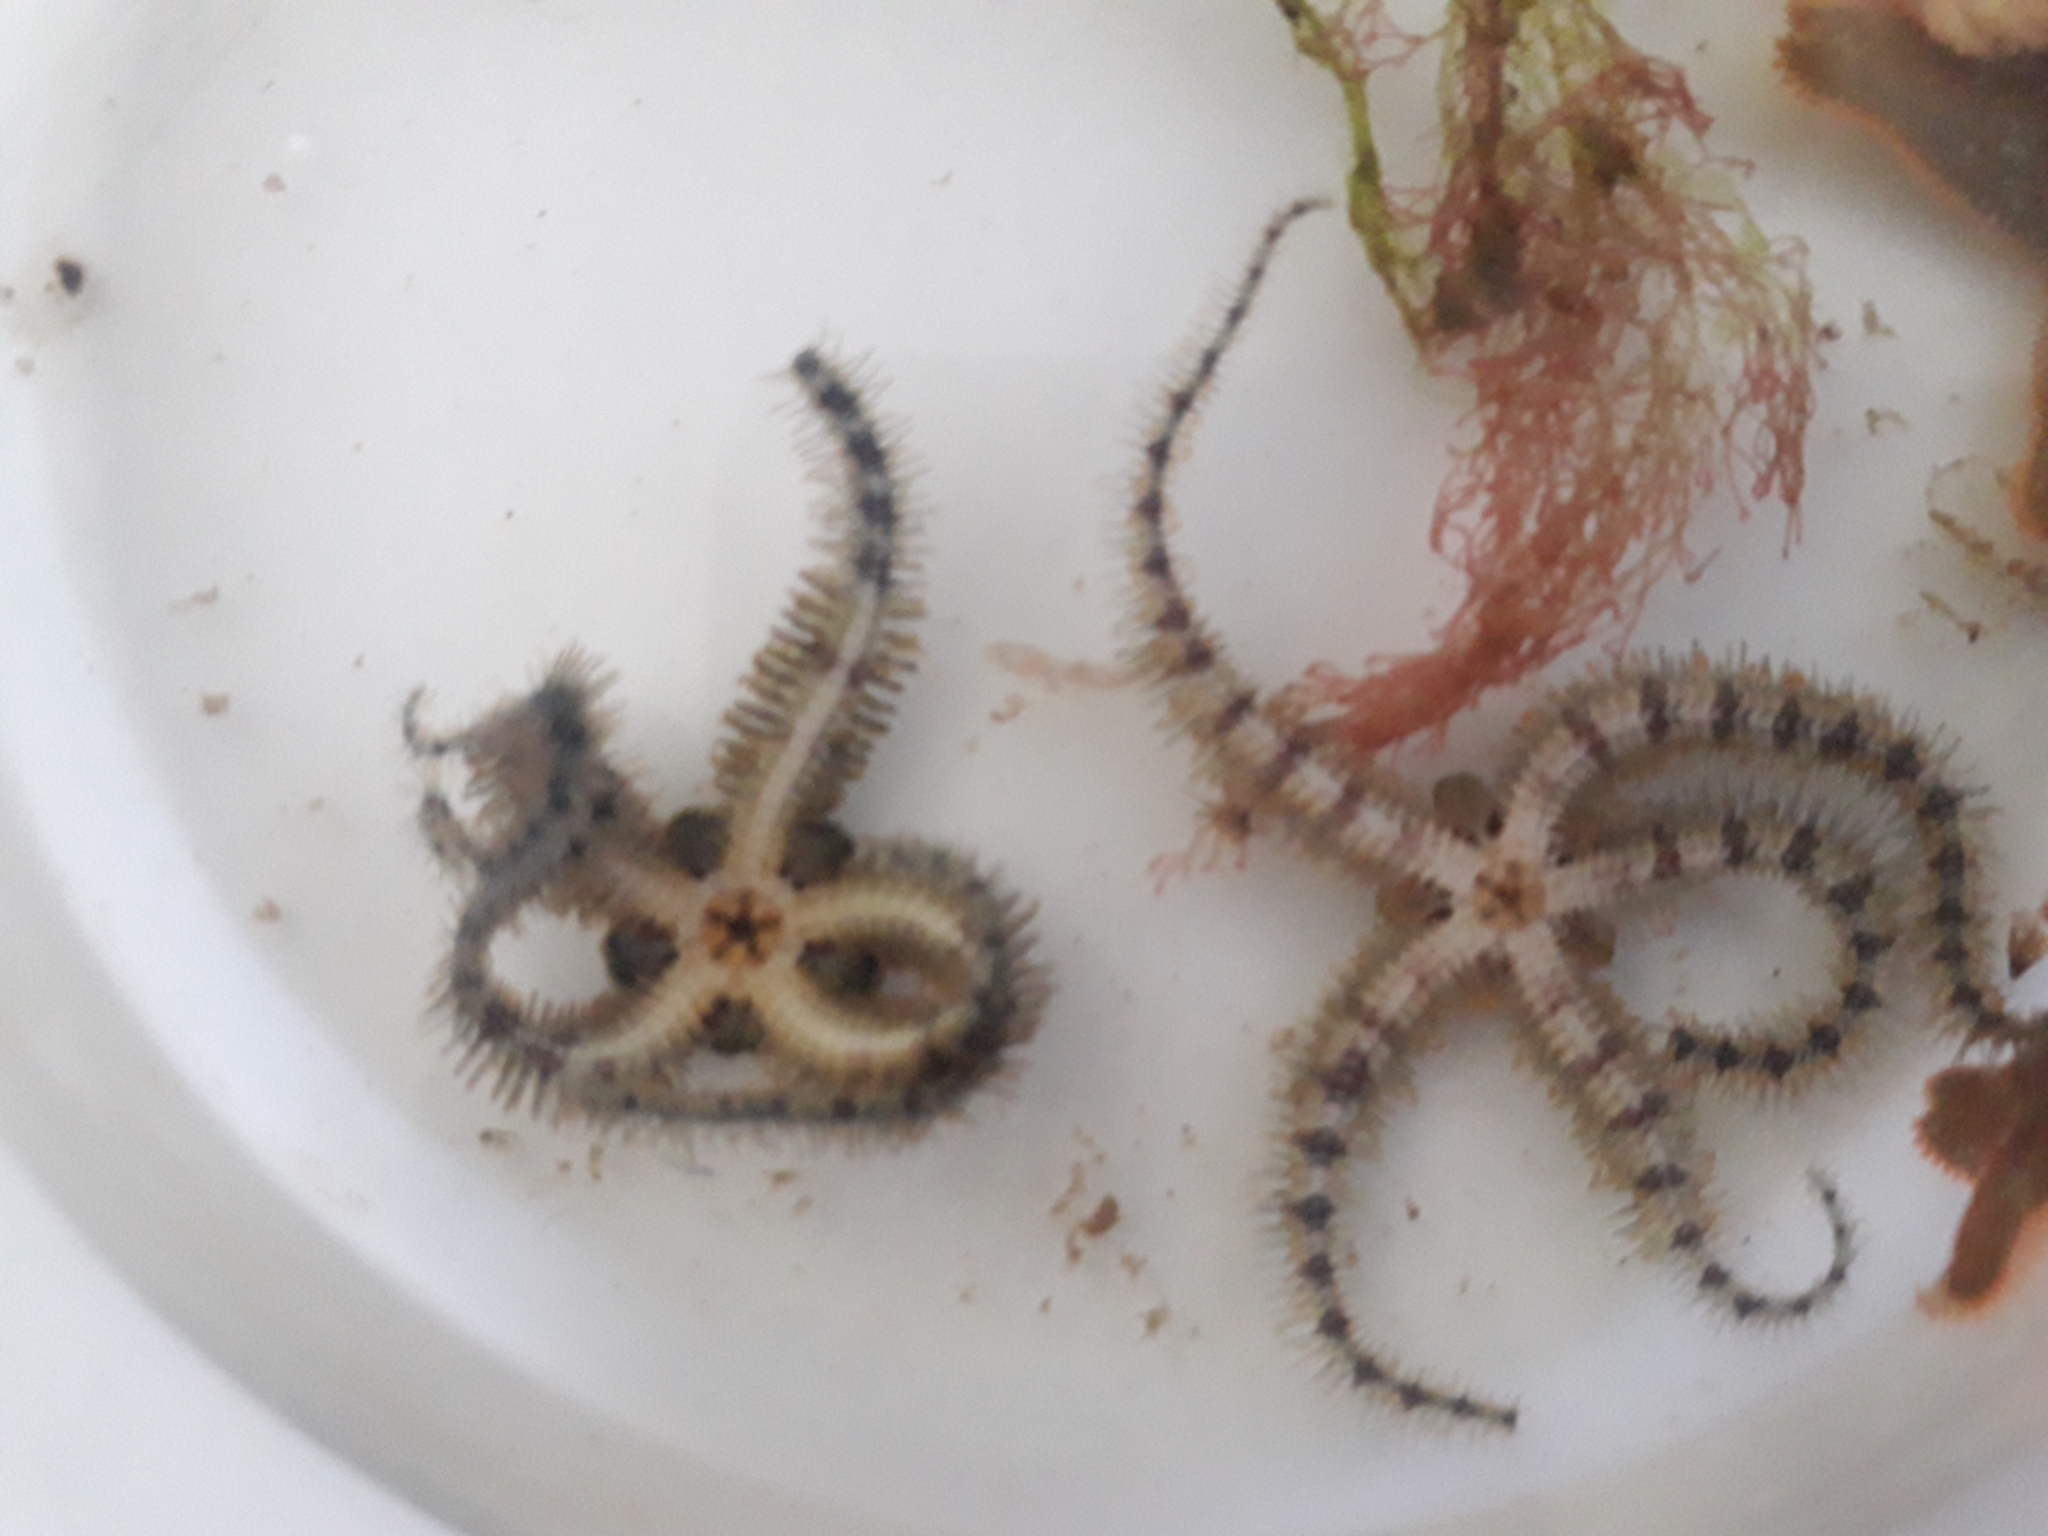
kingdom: Animalia
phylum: Echinodermata
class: Ophiuroidea
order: Amphilepidida
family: Ophiotrichidae
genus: Ophiothrix
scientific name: Ophiothrix fragilis
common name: Common brittlestar
